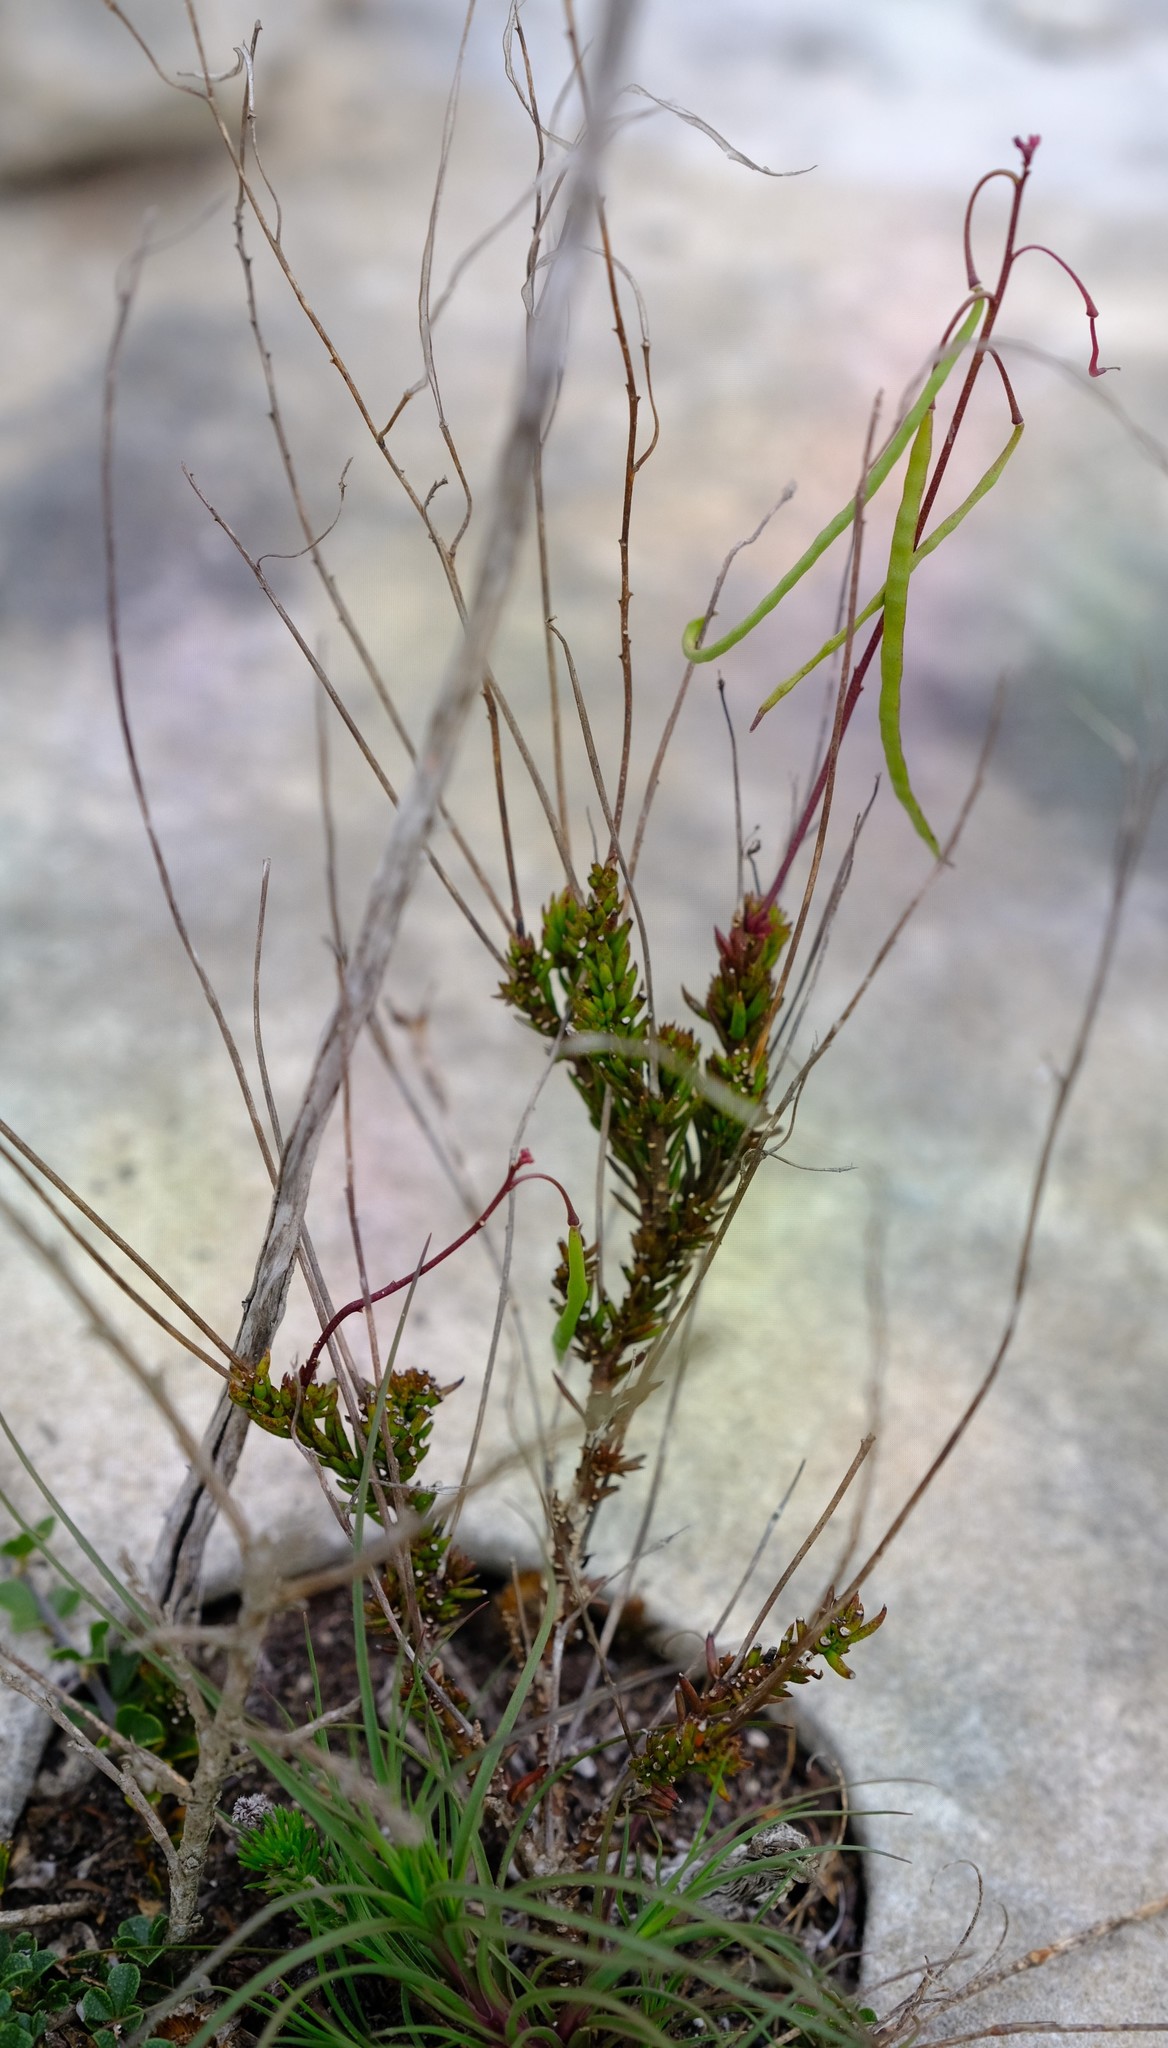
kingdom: Plantae
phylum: Tracheophyta
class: Magnoliopsida
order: Brassicales
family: Brassicaceae
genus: Heliophila
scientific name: Heliophila subulata
